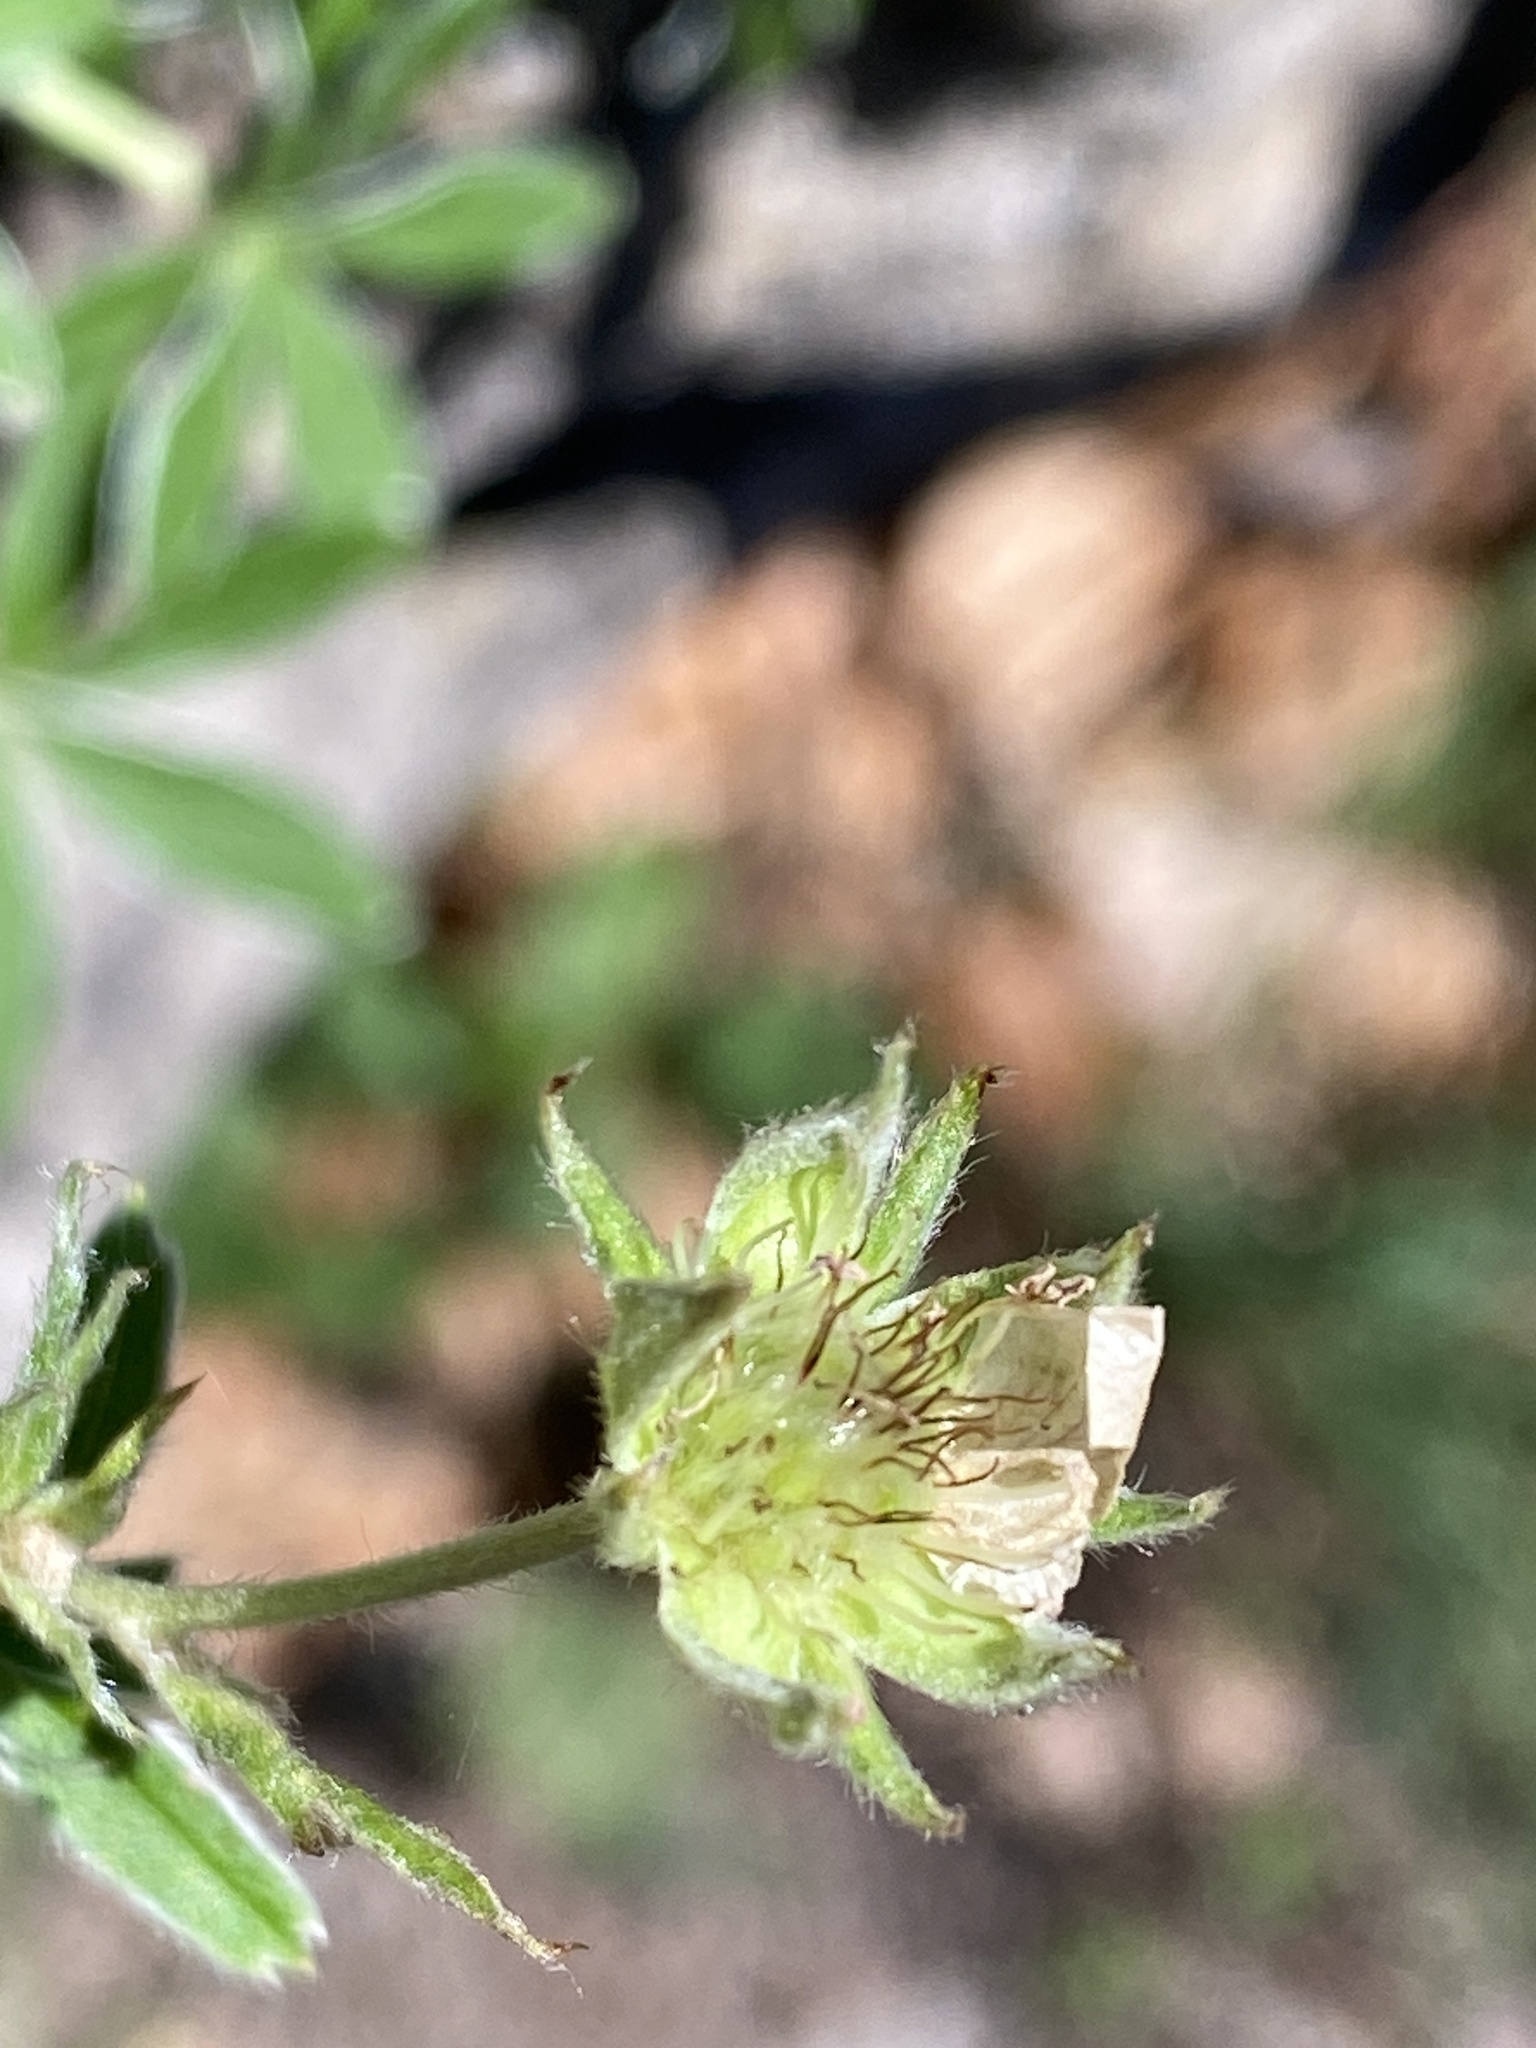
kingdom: Plantae
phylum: Tracheophyta
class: Magnoliopsida
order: Rosales
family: Rosaceae
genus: Potentilla
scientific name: Potentilla alchimilloides
